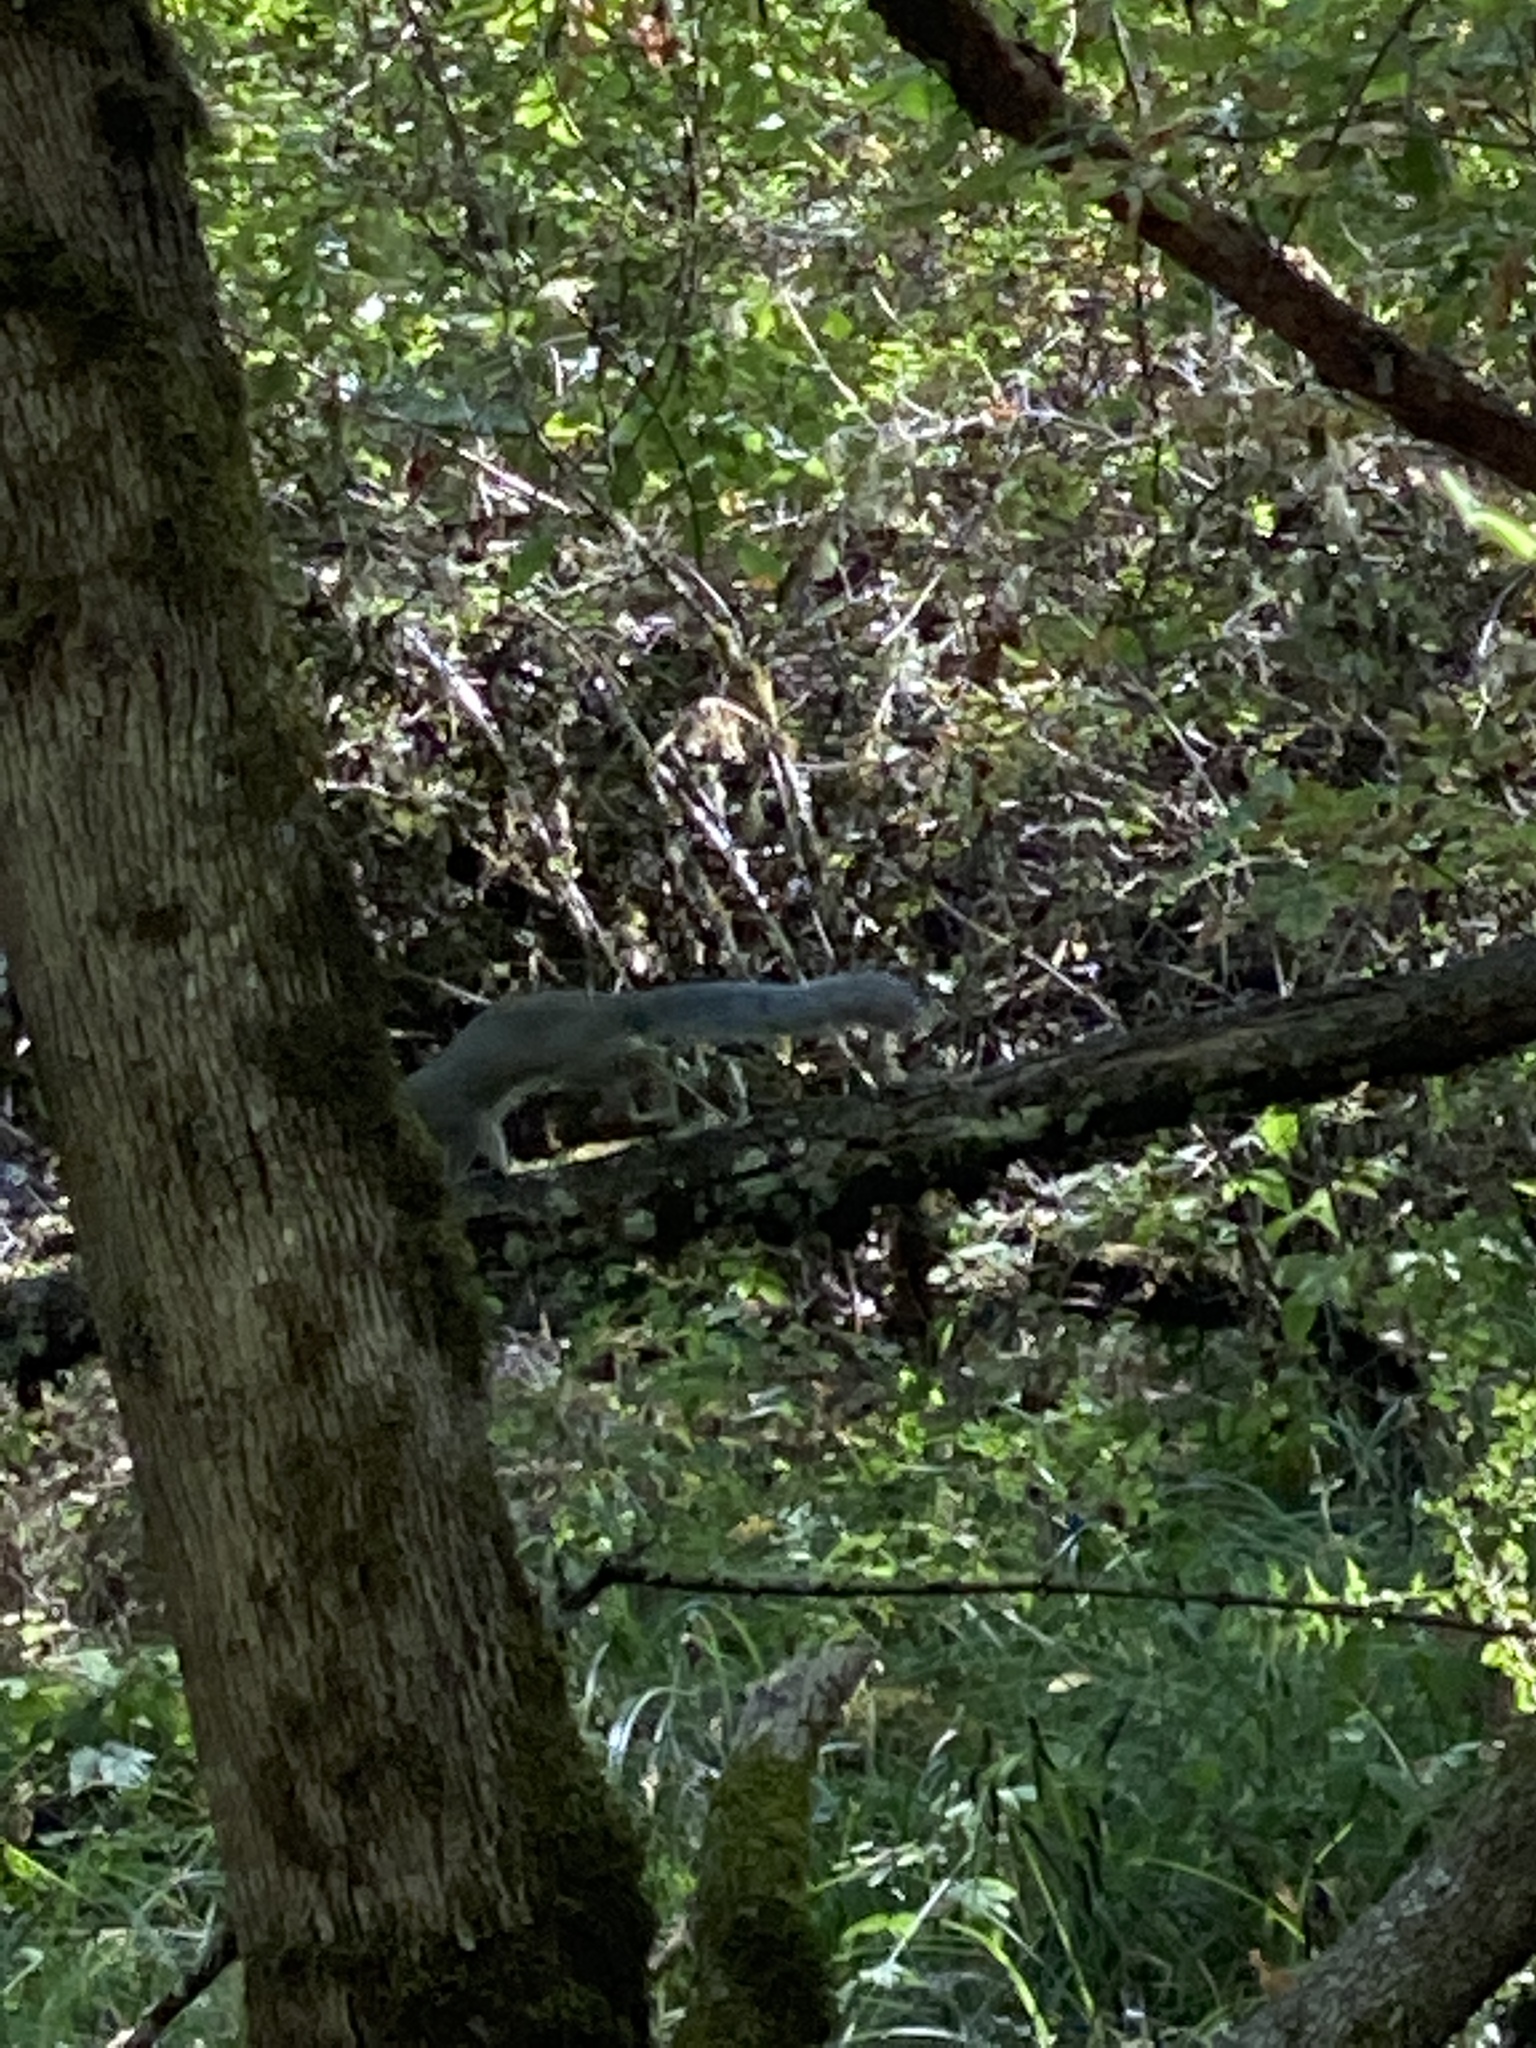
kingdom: Animalia
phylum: Chordata
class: Mammalia
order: Rodentia
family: Sciuridae
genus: Sciurus
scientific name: Sciurus carolinensis
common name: Eastern gray squirrel
